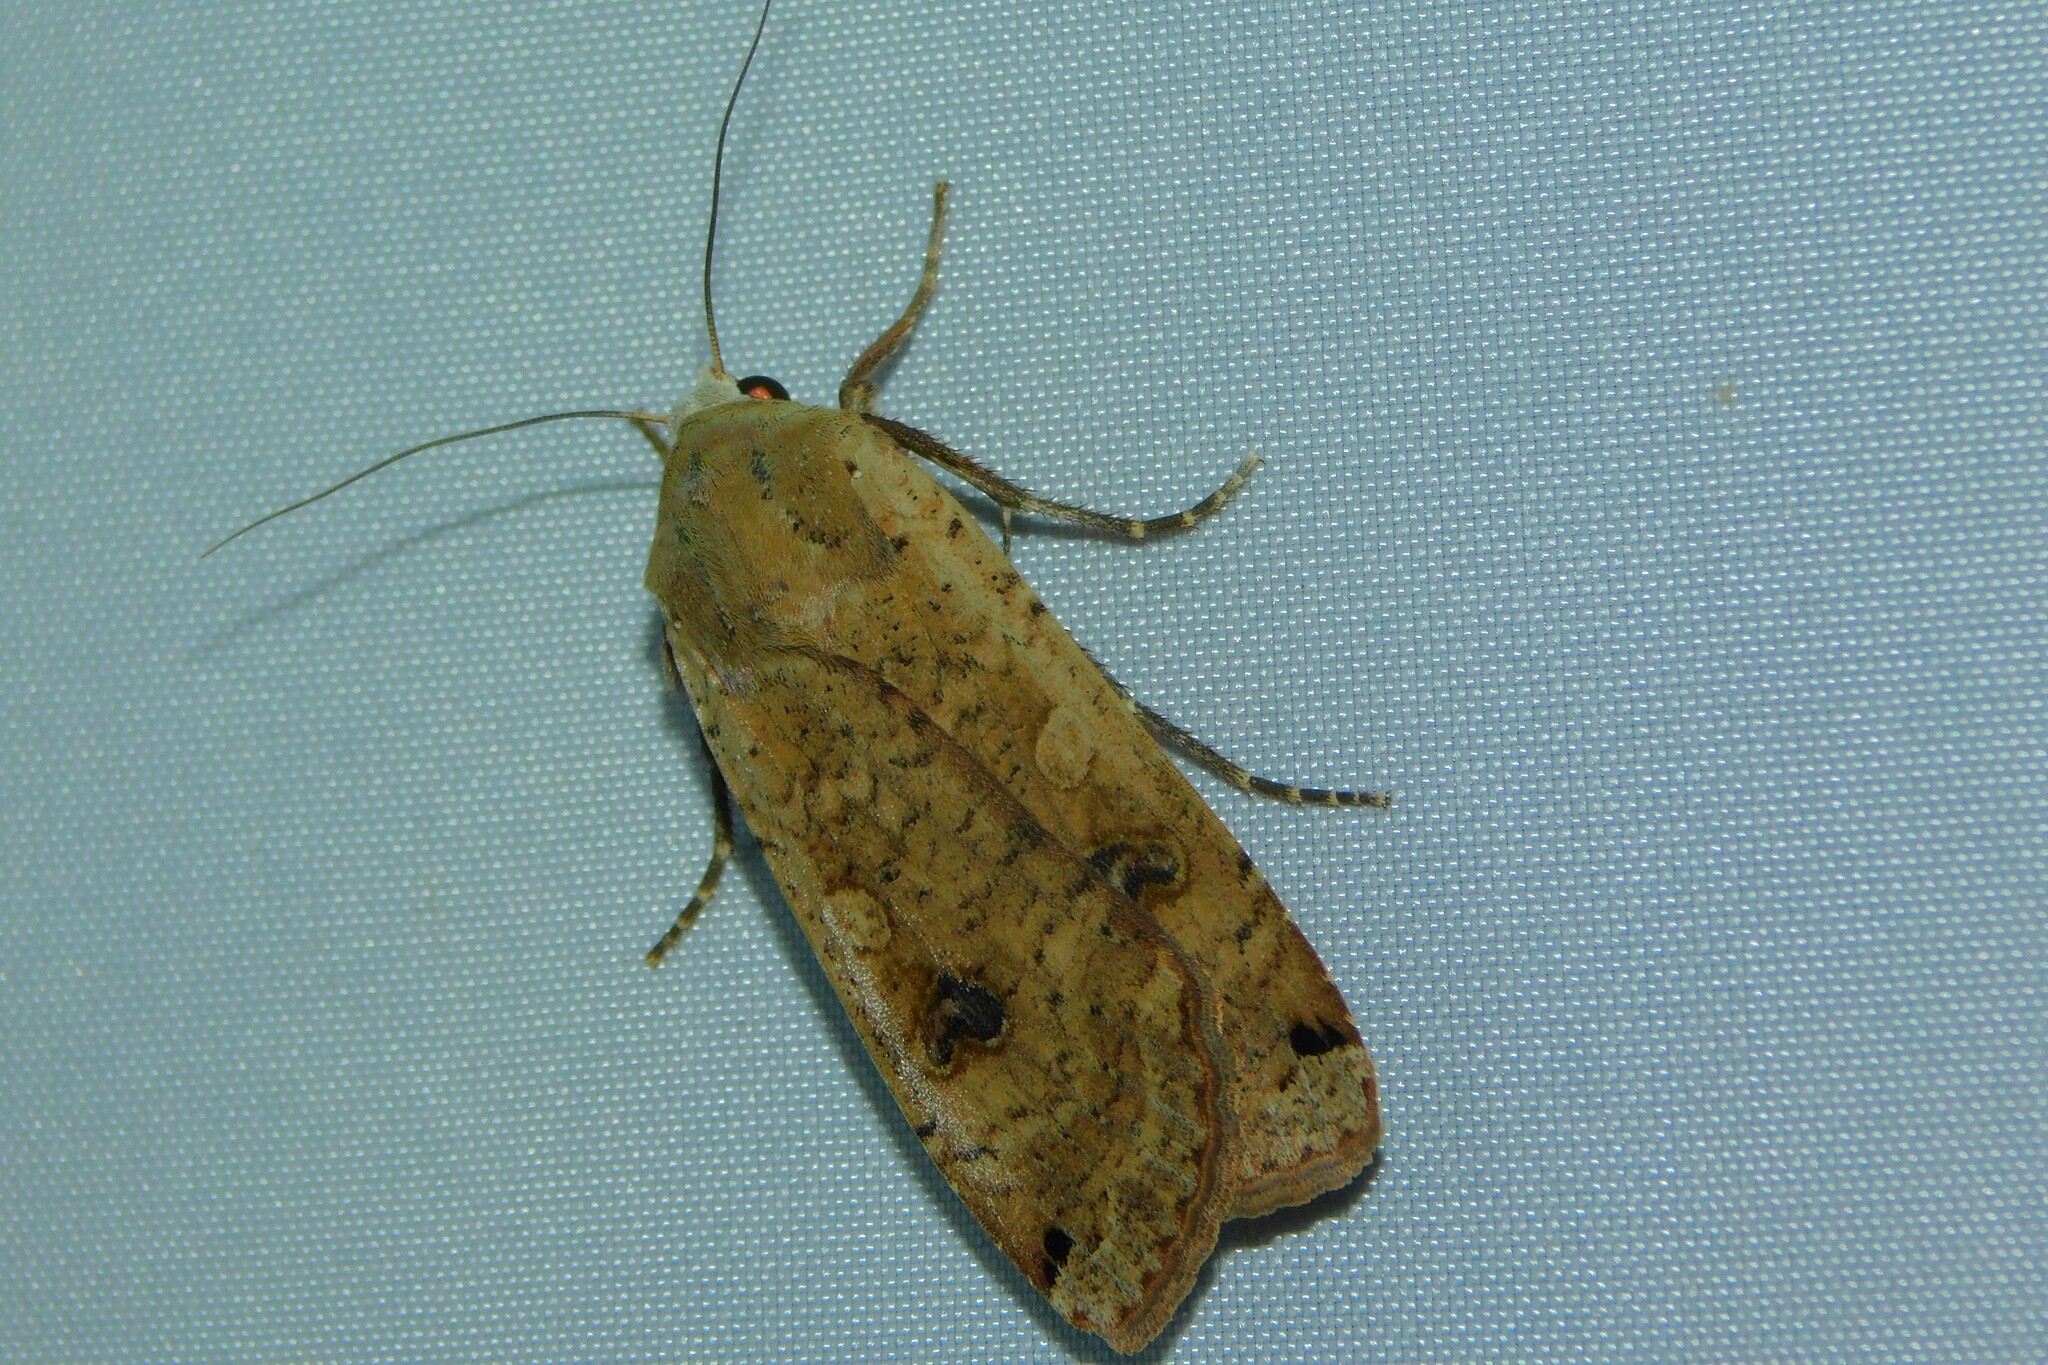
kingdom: Animalia
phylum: Arthropoda
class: Insecta
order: Lepidoptera
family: Noctuidae
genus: Noctua
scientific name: Noctua pronuba
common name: Large yellow underwing
